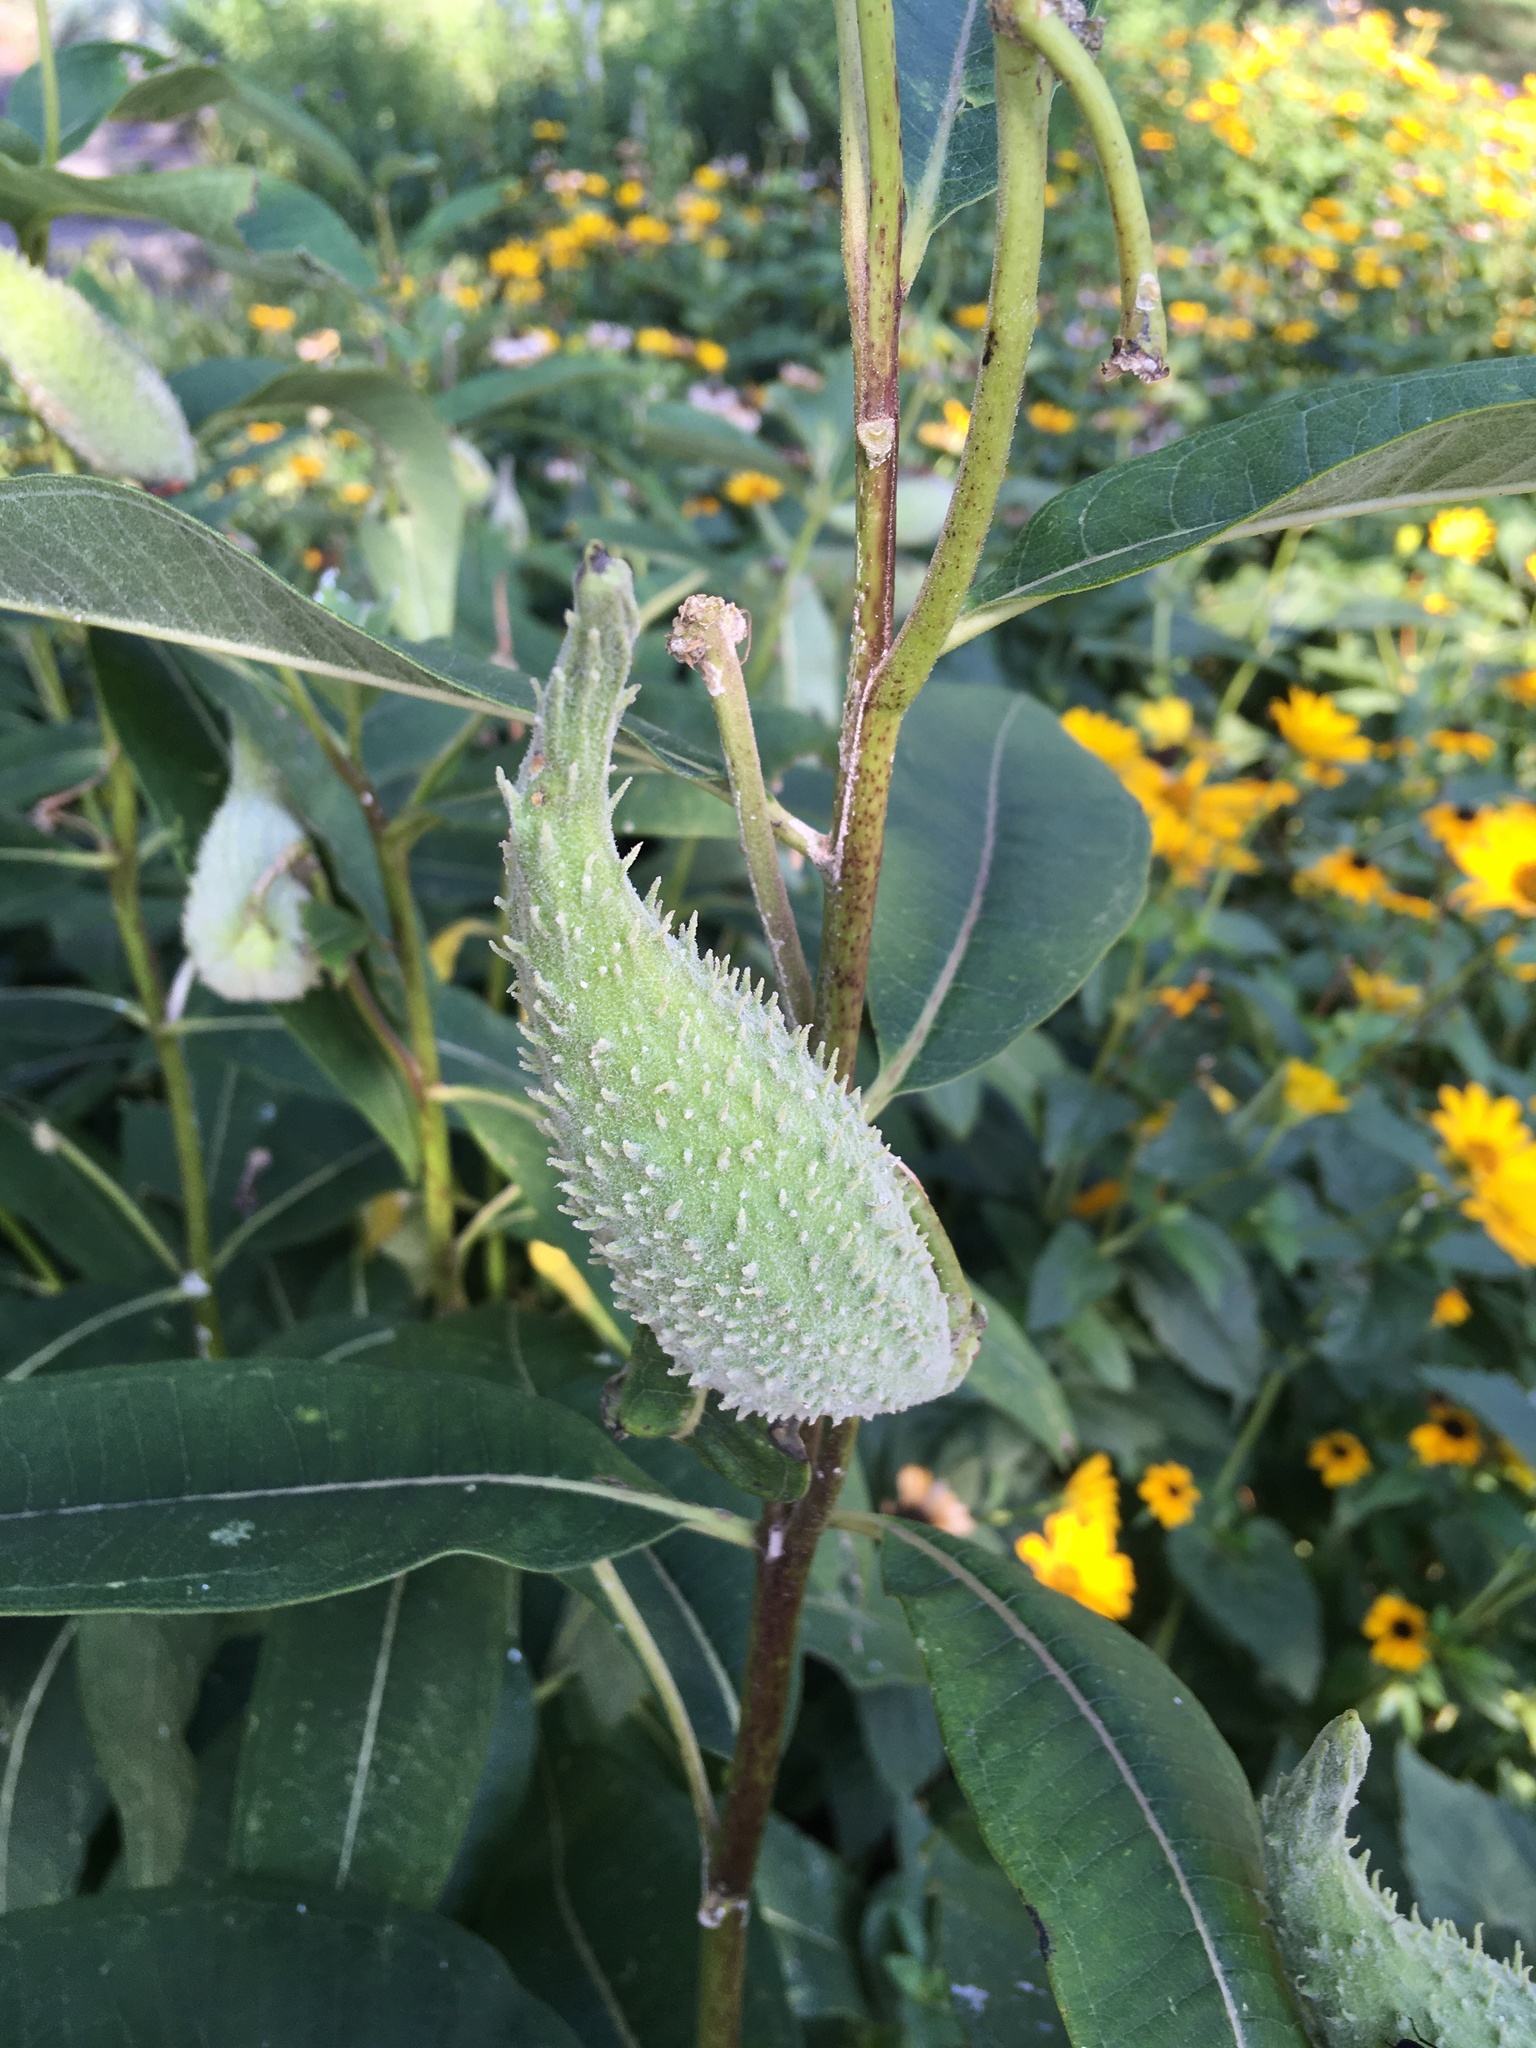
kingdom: Plantae
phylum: Tracheophyta
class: Magnoliopsida
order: Gentianales
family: Apocynaceae
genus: Asclepias
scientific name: Asclepias syriaca
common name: Common milkweed
